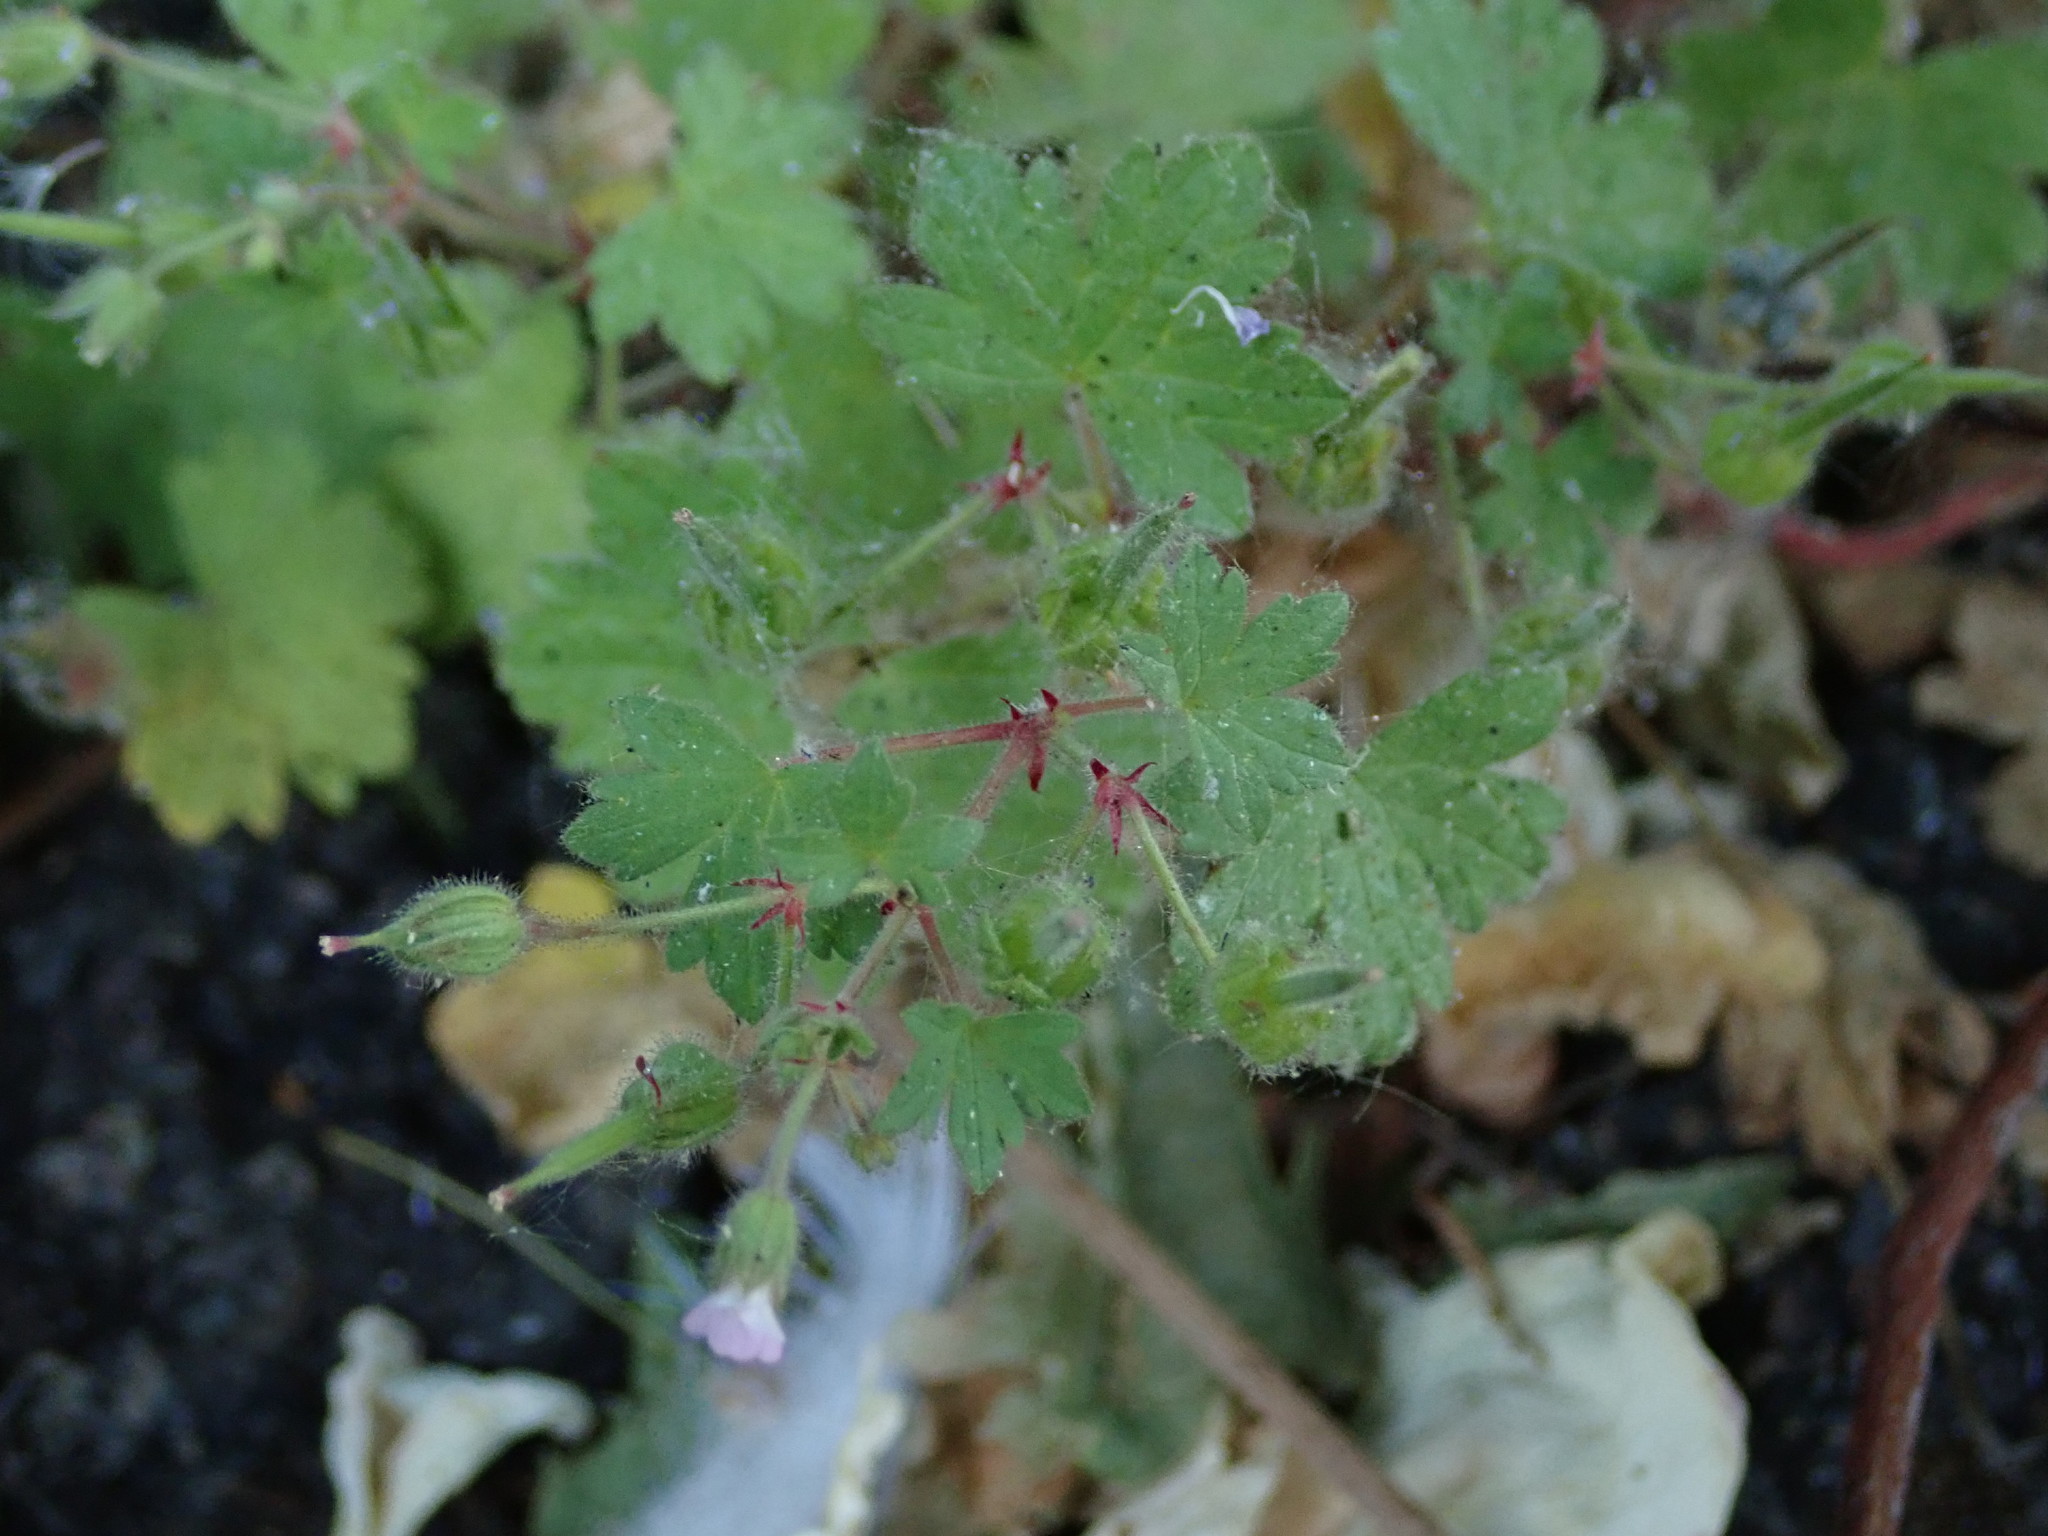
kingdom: Plantae
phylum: Tracheophyta
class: Magnoliopsida
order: Geraniales
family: Geraniaceae
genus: Geranium
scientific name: Geranium rotundifolium
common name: Round-leaved crane's-bill
